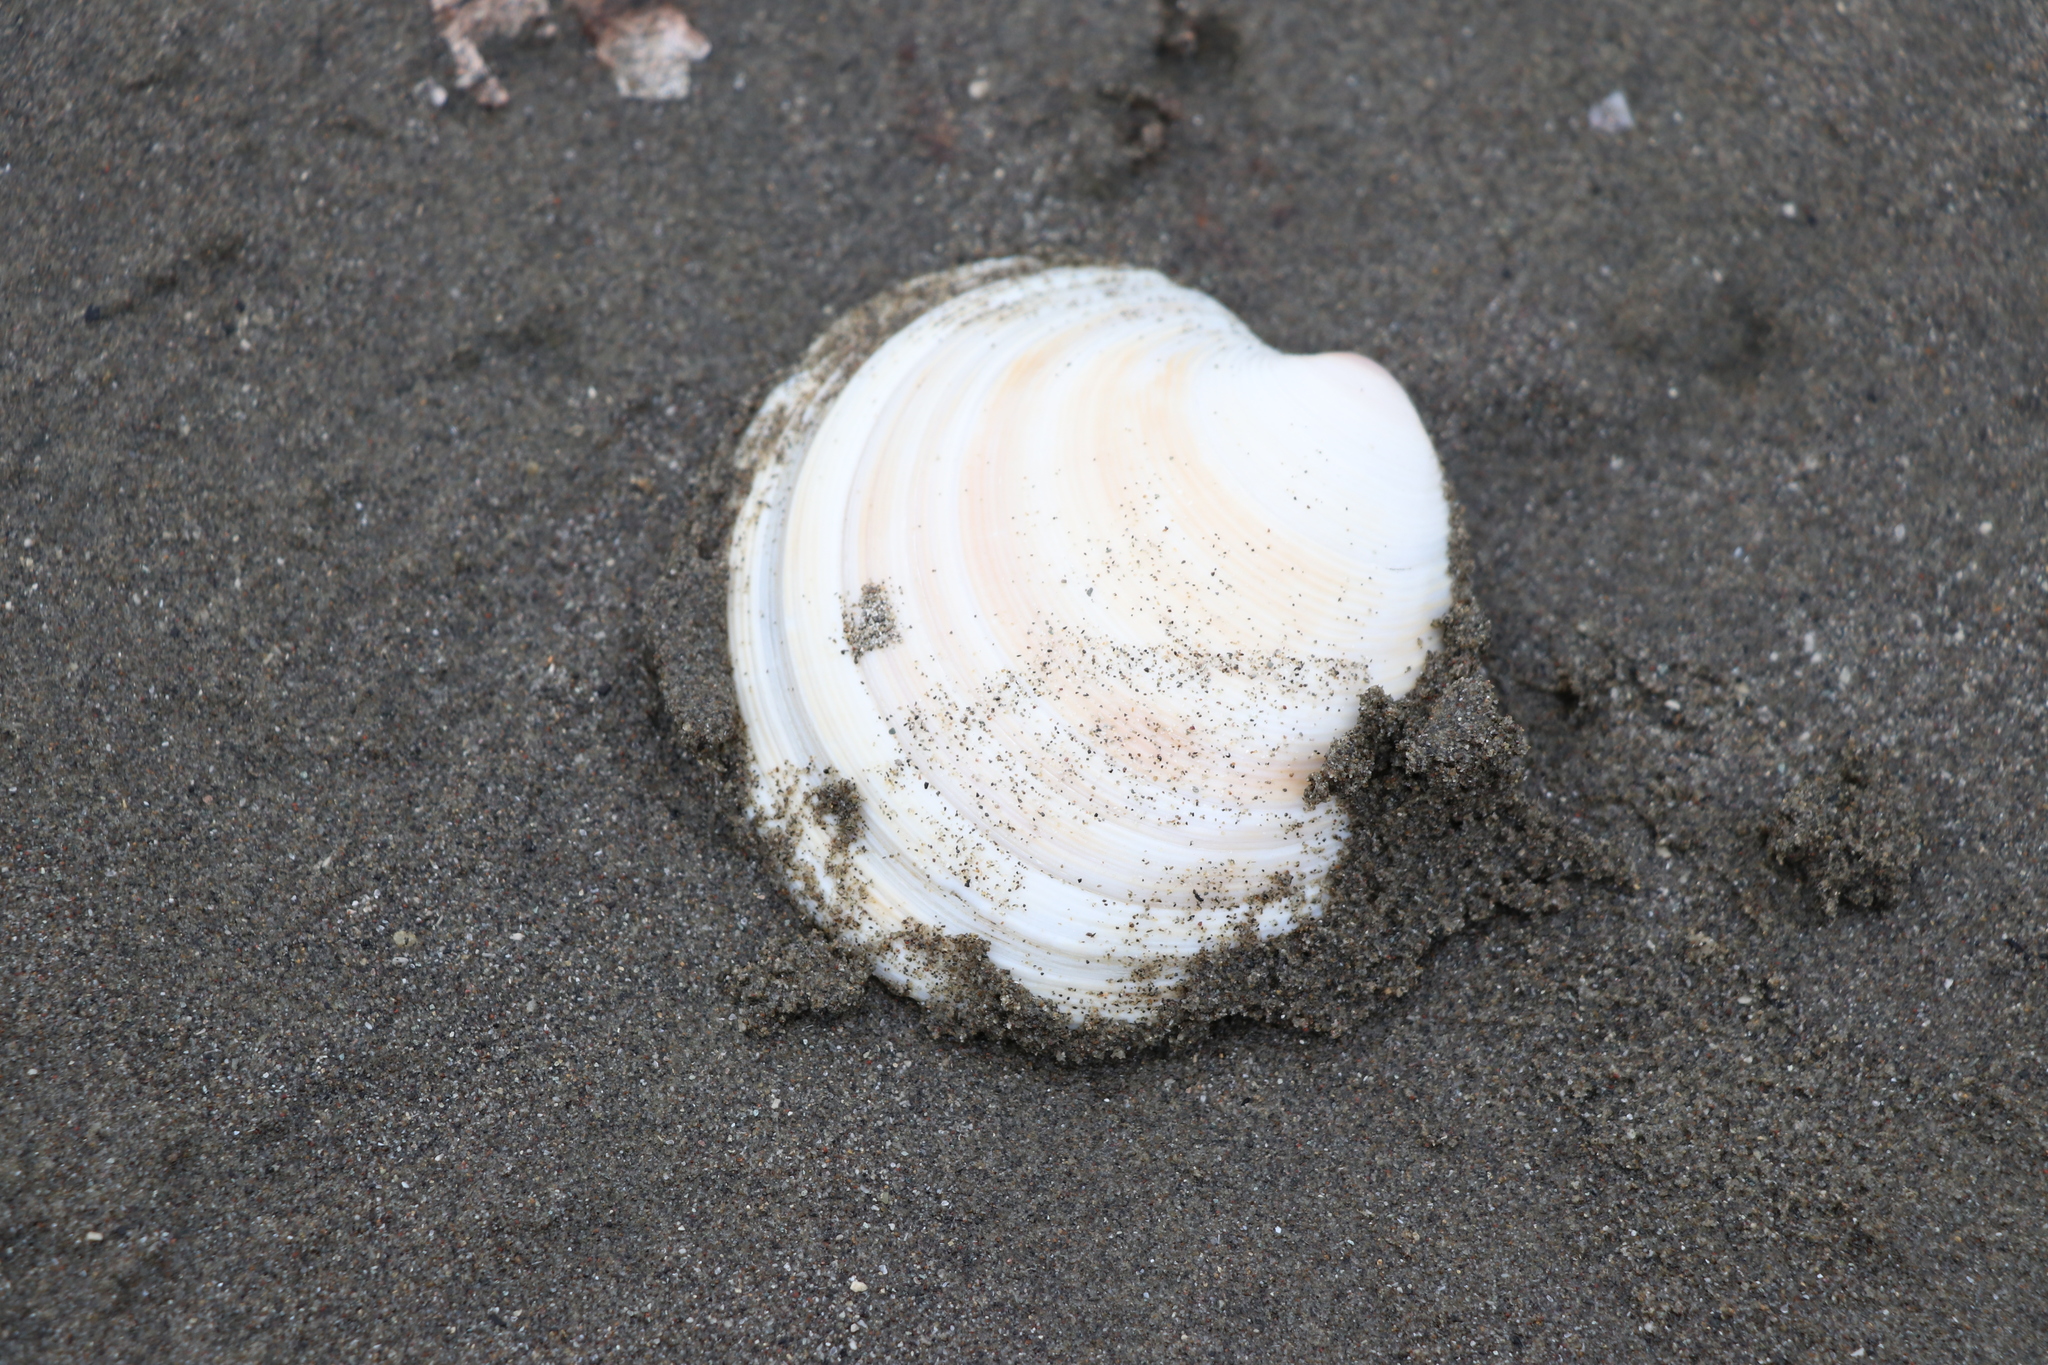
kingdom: Animalia
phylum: Mollusca
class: Bivalvia
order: Venerida
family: Veneridae
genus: Dosinia
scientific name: Dosinia subrosea
